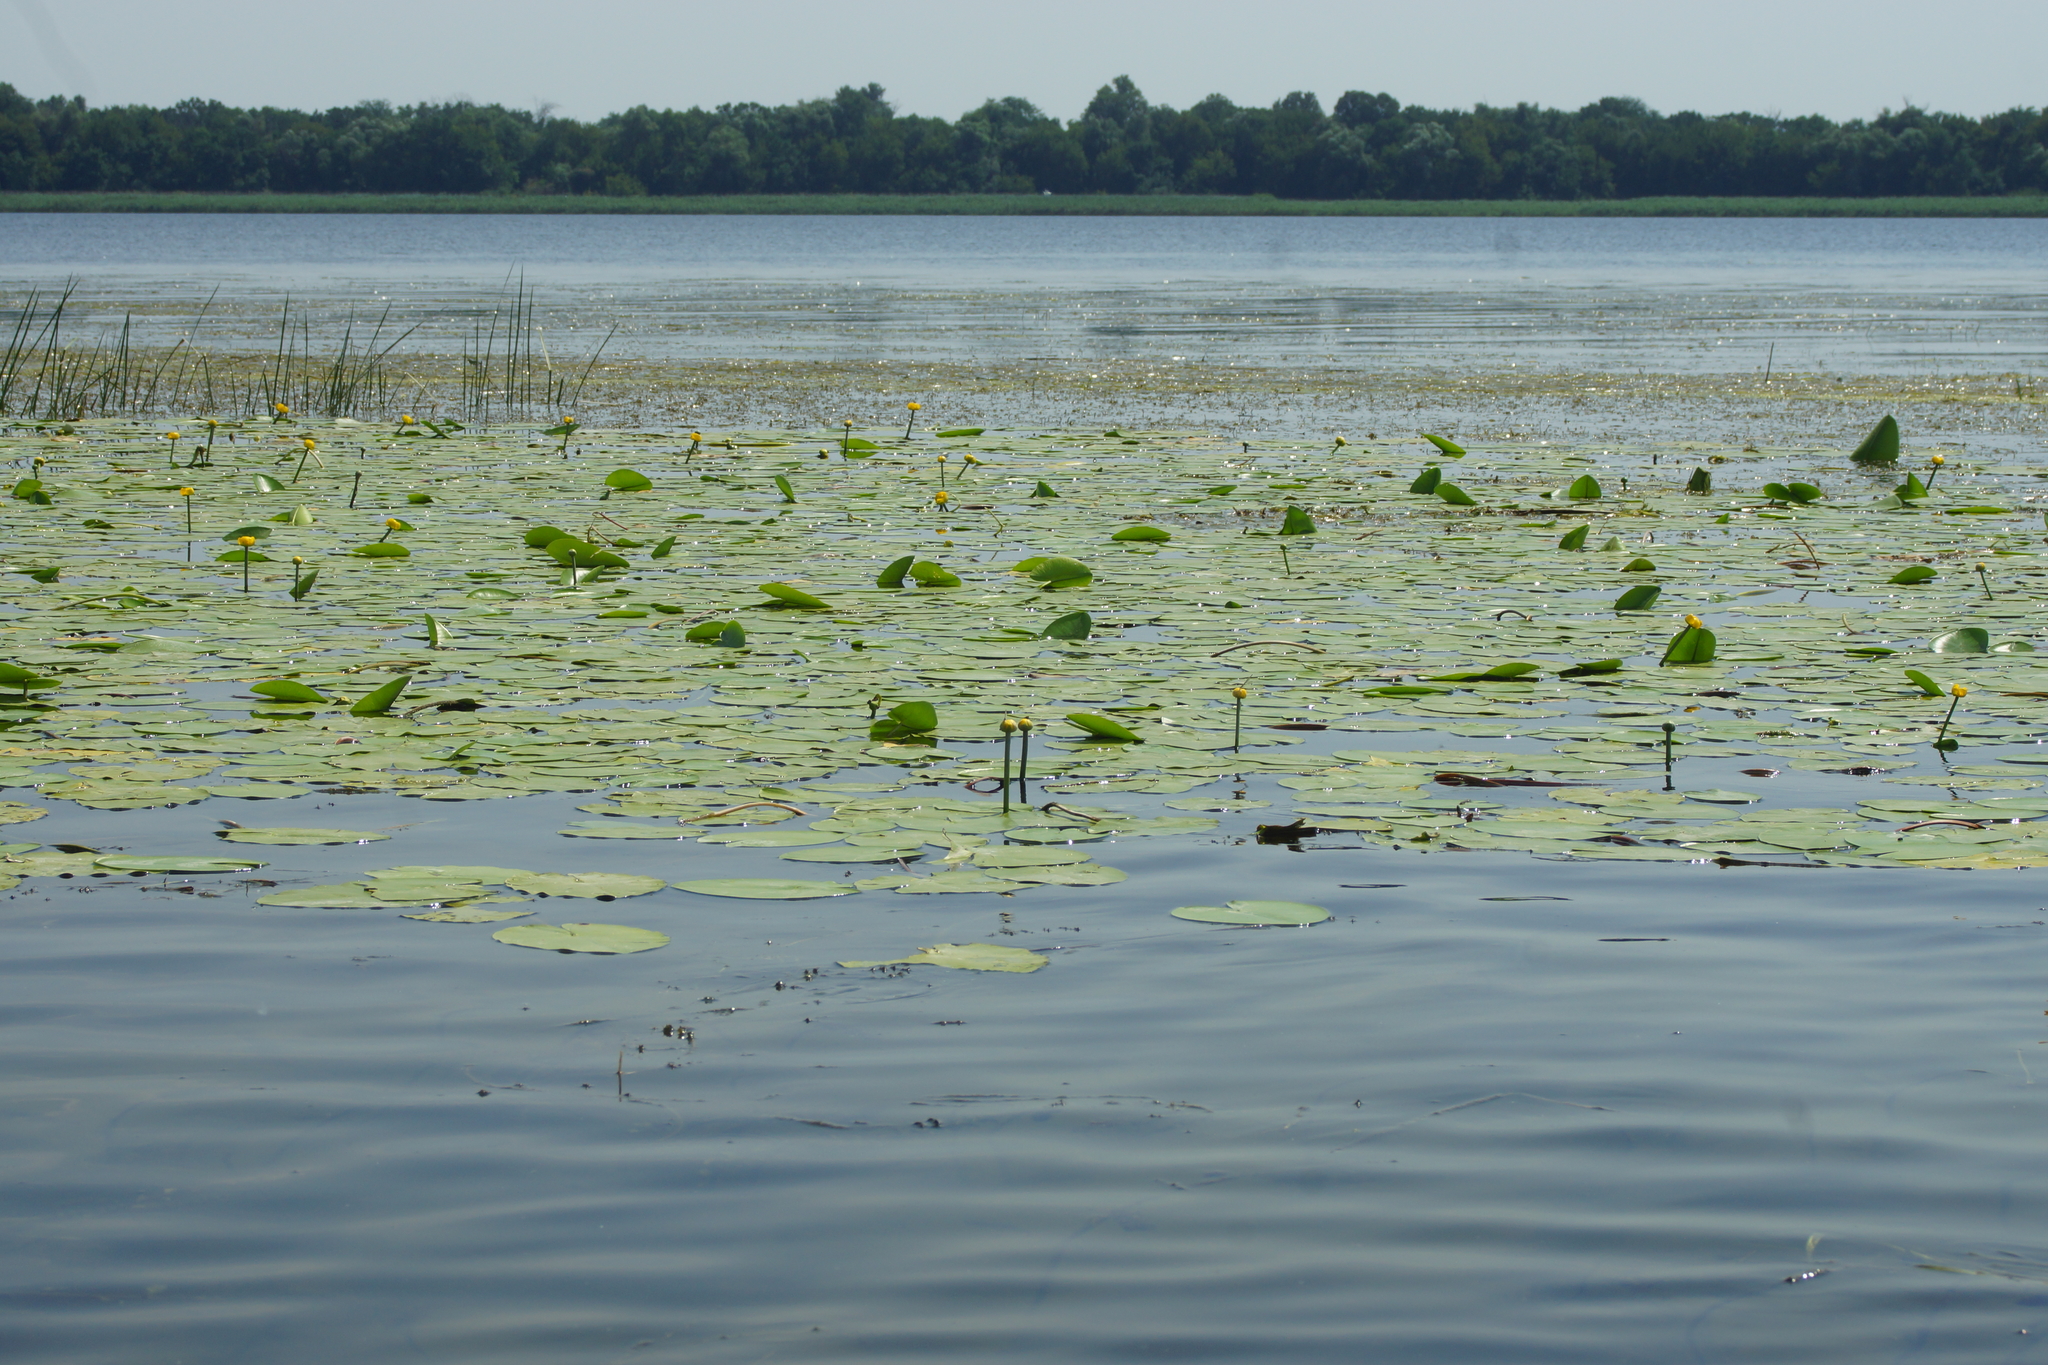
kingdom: Plantae
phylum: Tracheophyta
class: Magnoliopsida
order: Nymphaeales
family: Nymphaeaceae
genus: Nuphar
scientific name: Nuphar lutea
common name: Yellow water-lily
